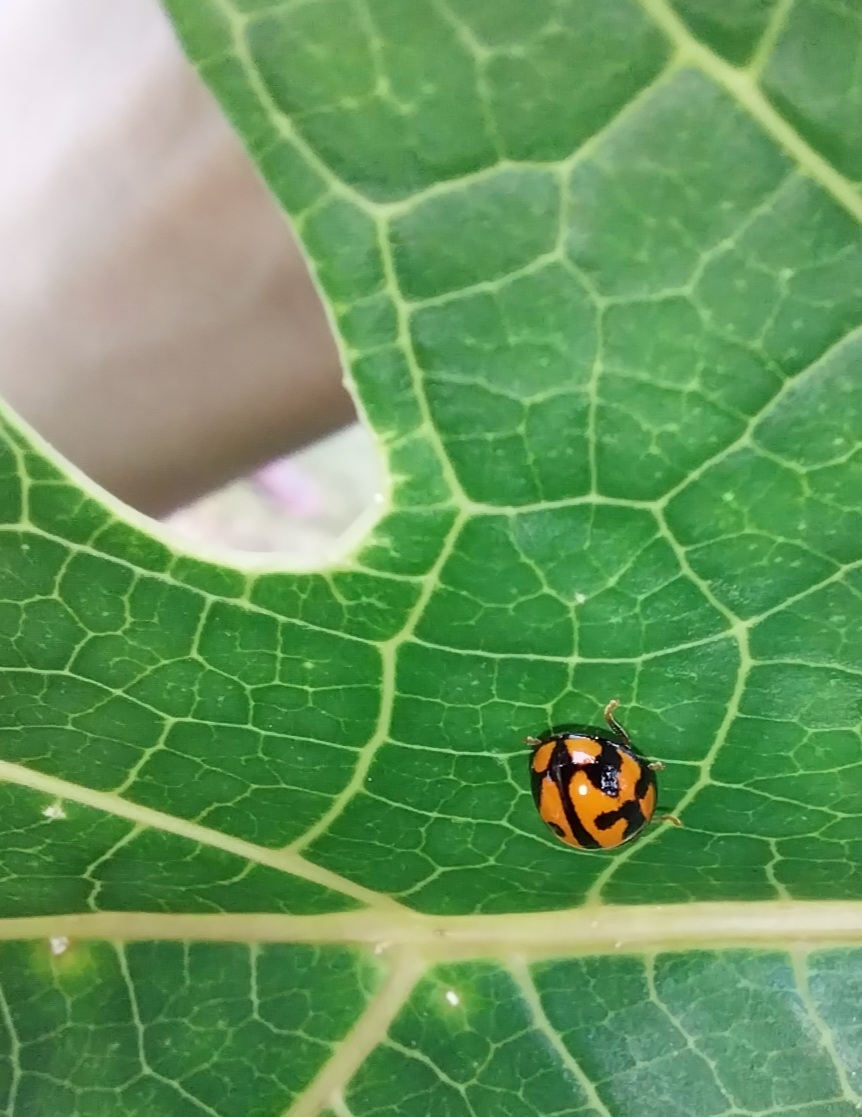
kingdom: Animalia
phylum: Arthropoda
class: Insecta
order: Coleoptera
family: Coccinellidae
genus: Coelophora
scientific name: Coelophora inaequalis
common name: Common australian lady beetle
